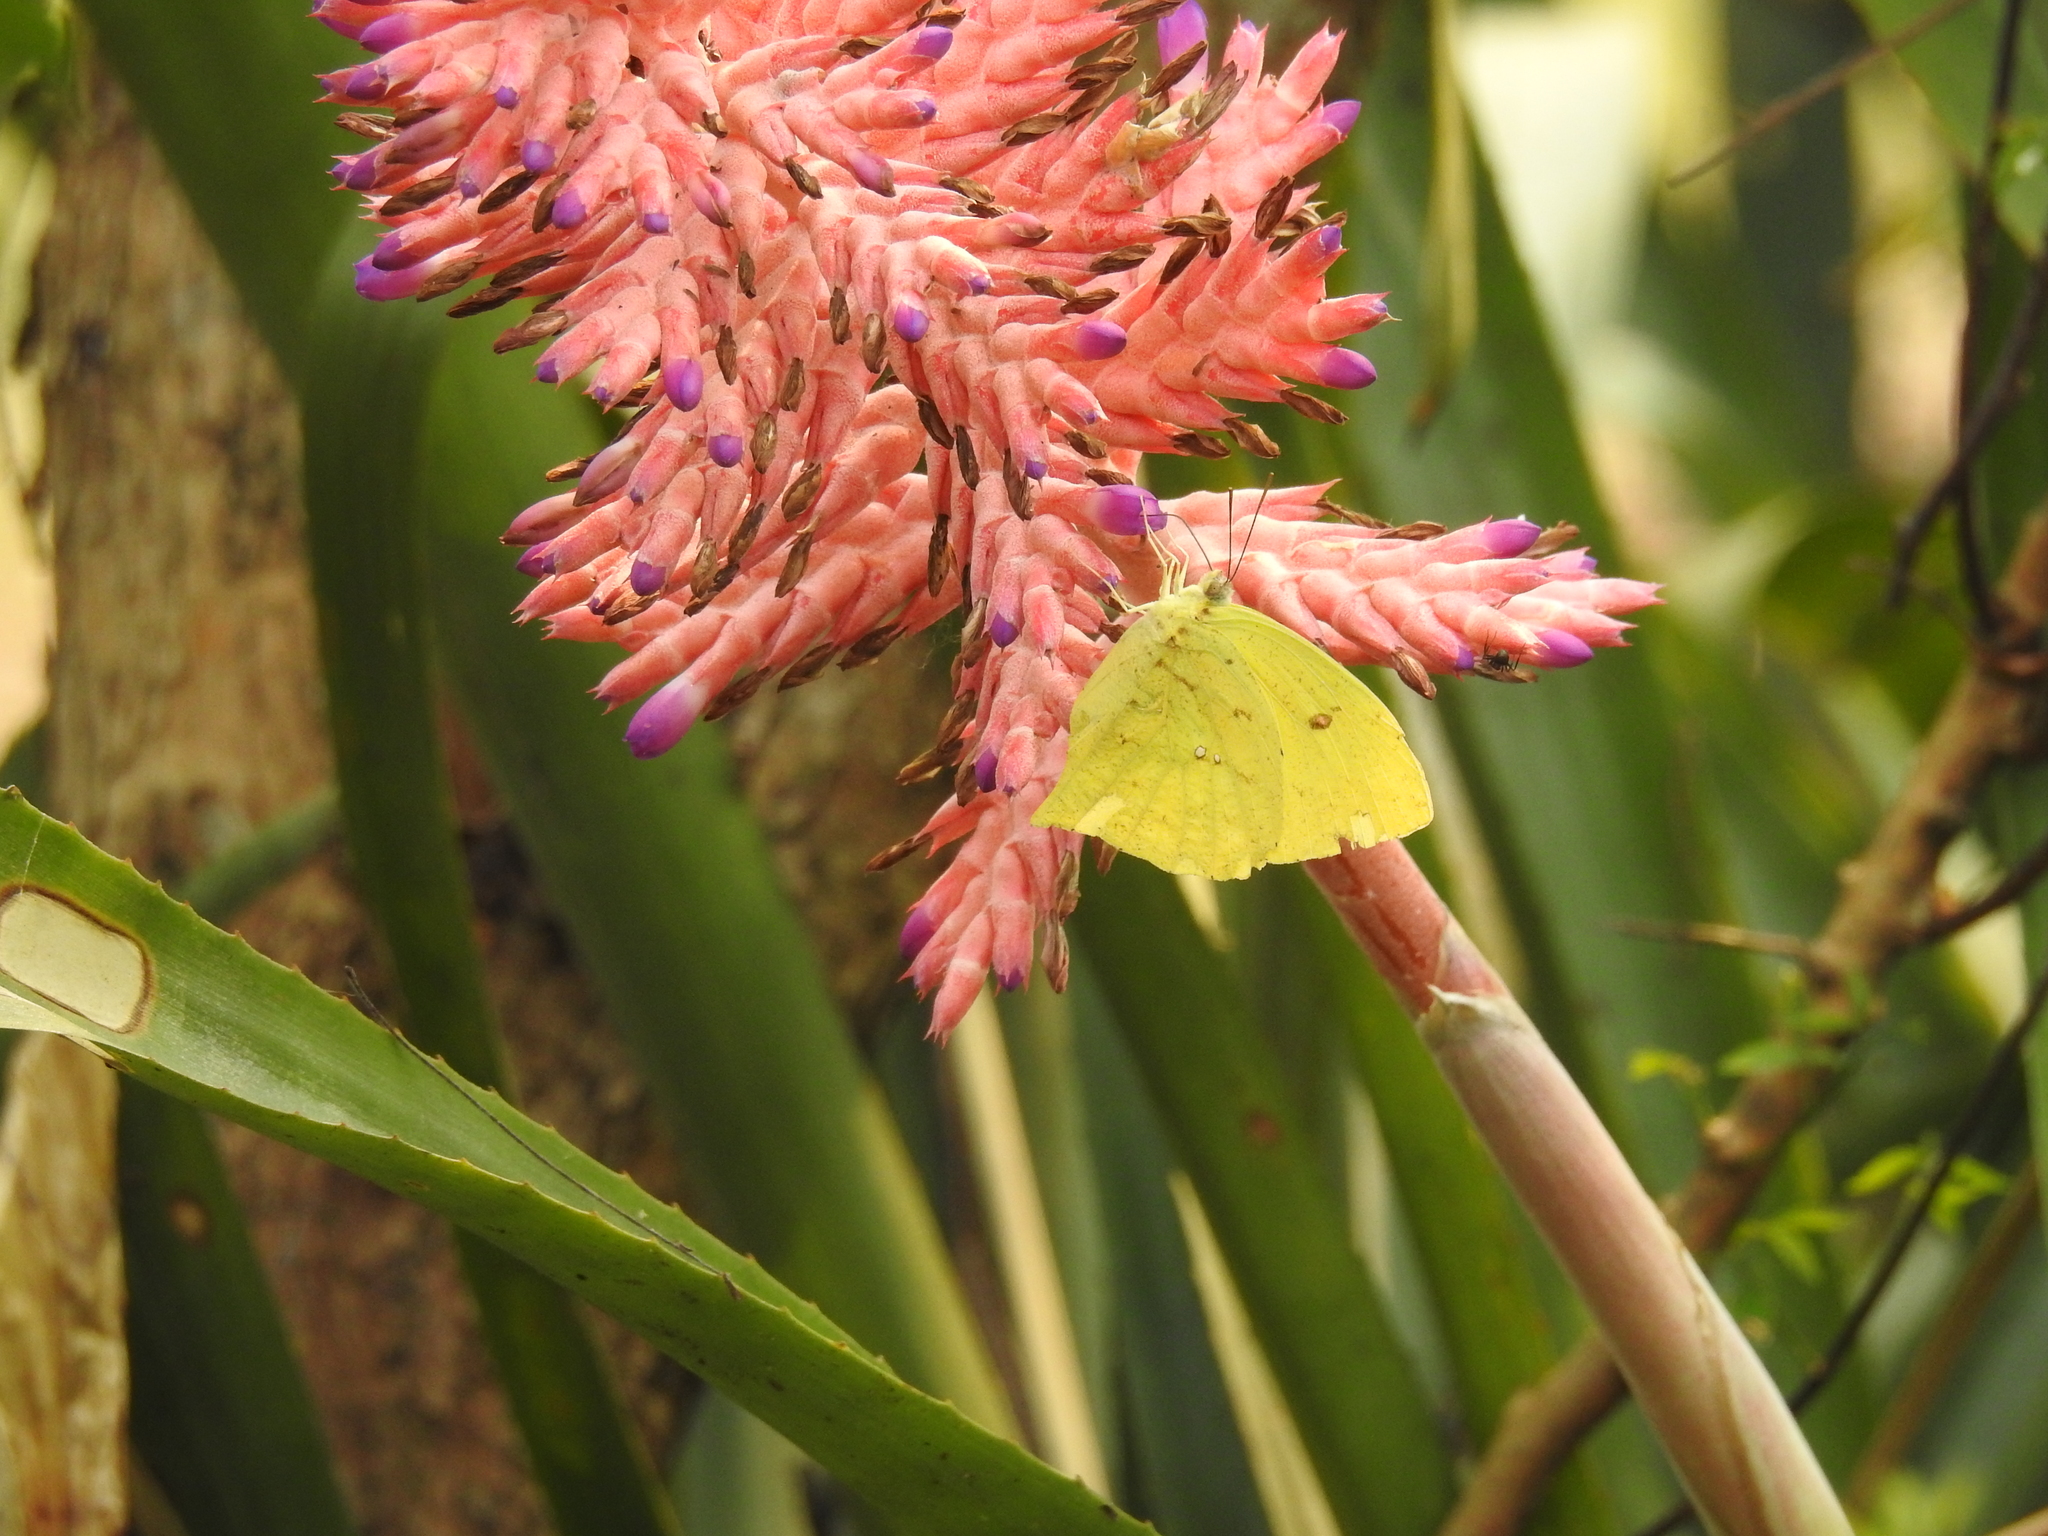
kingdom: Animalia
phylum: Arthropoda
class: Insecta
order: Lepidoptera
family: Pieridae
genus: Phoebis
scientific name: Phoebis neocypris
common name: Tailed sulphur
